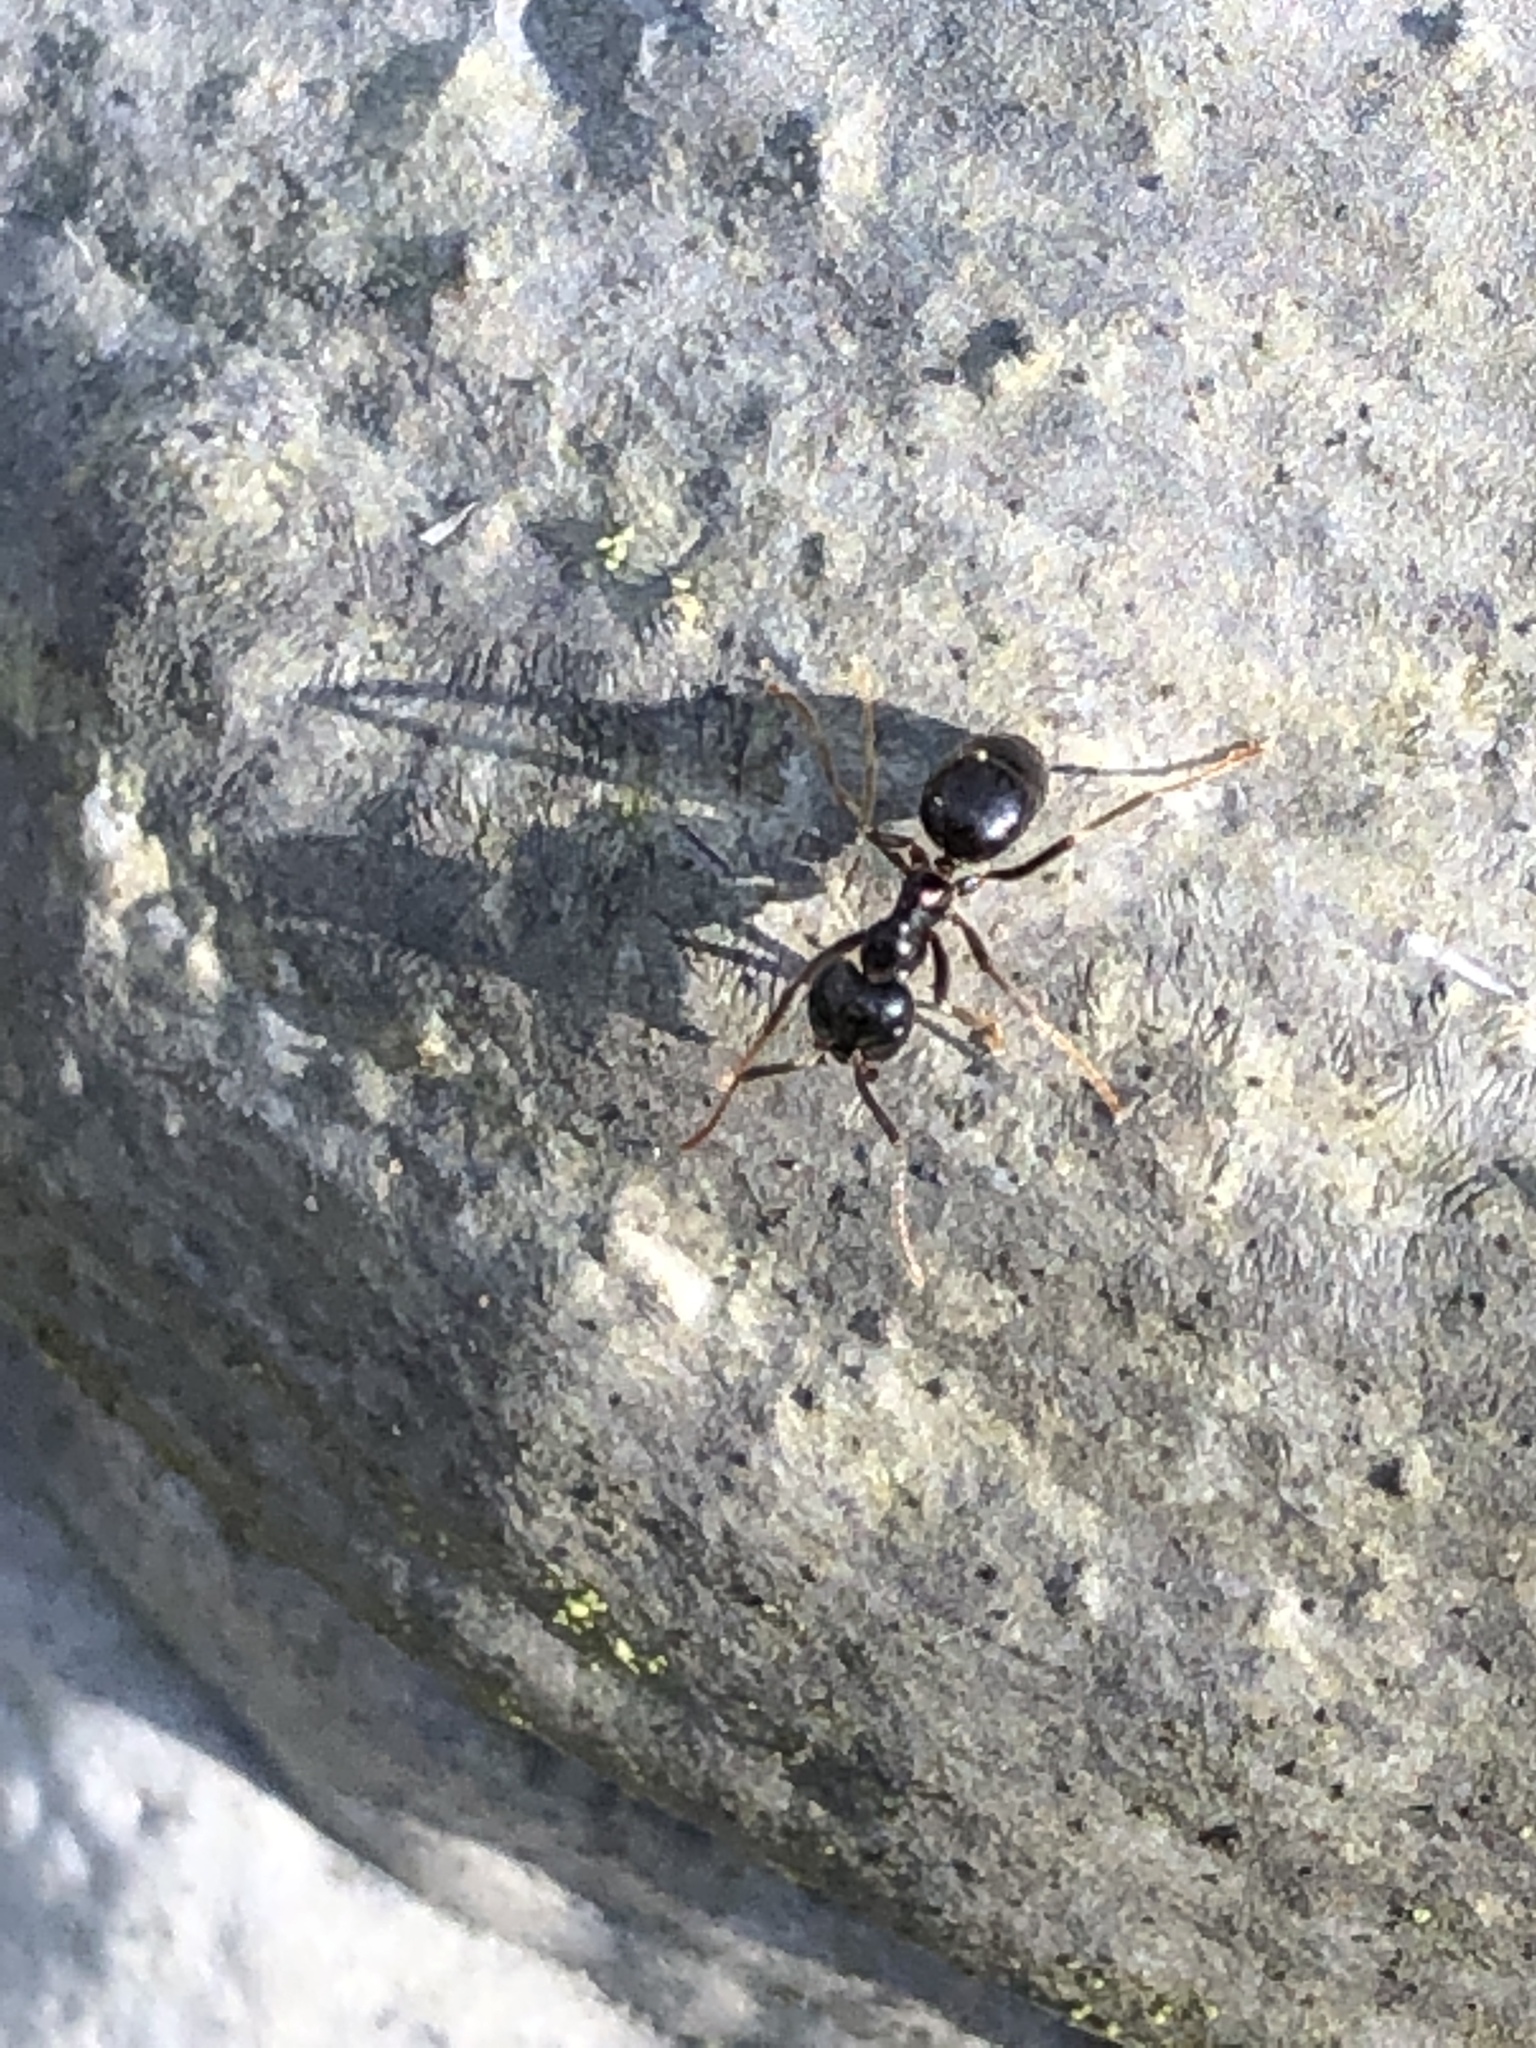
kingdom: Animalia
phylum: Arthropoda
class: Insecta
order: Hymenoptera
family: Formicidae
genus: Lasius
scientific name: Lasius fuliginosus
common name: Jet ant
